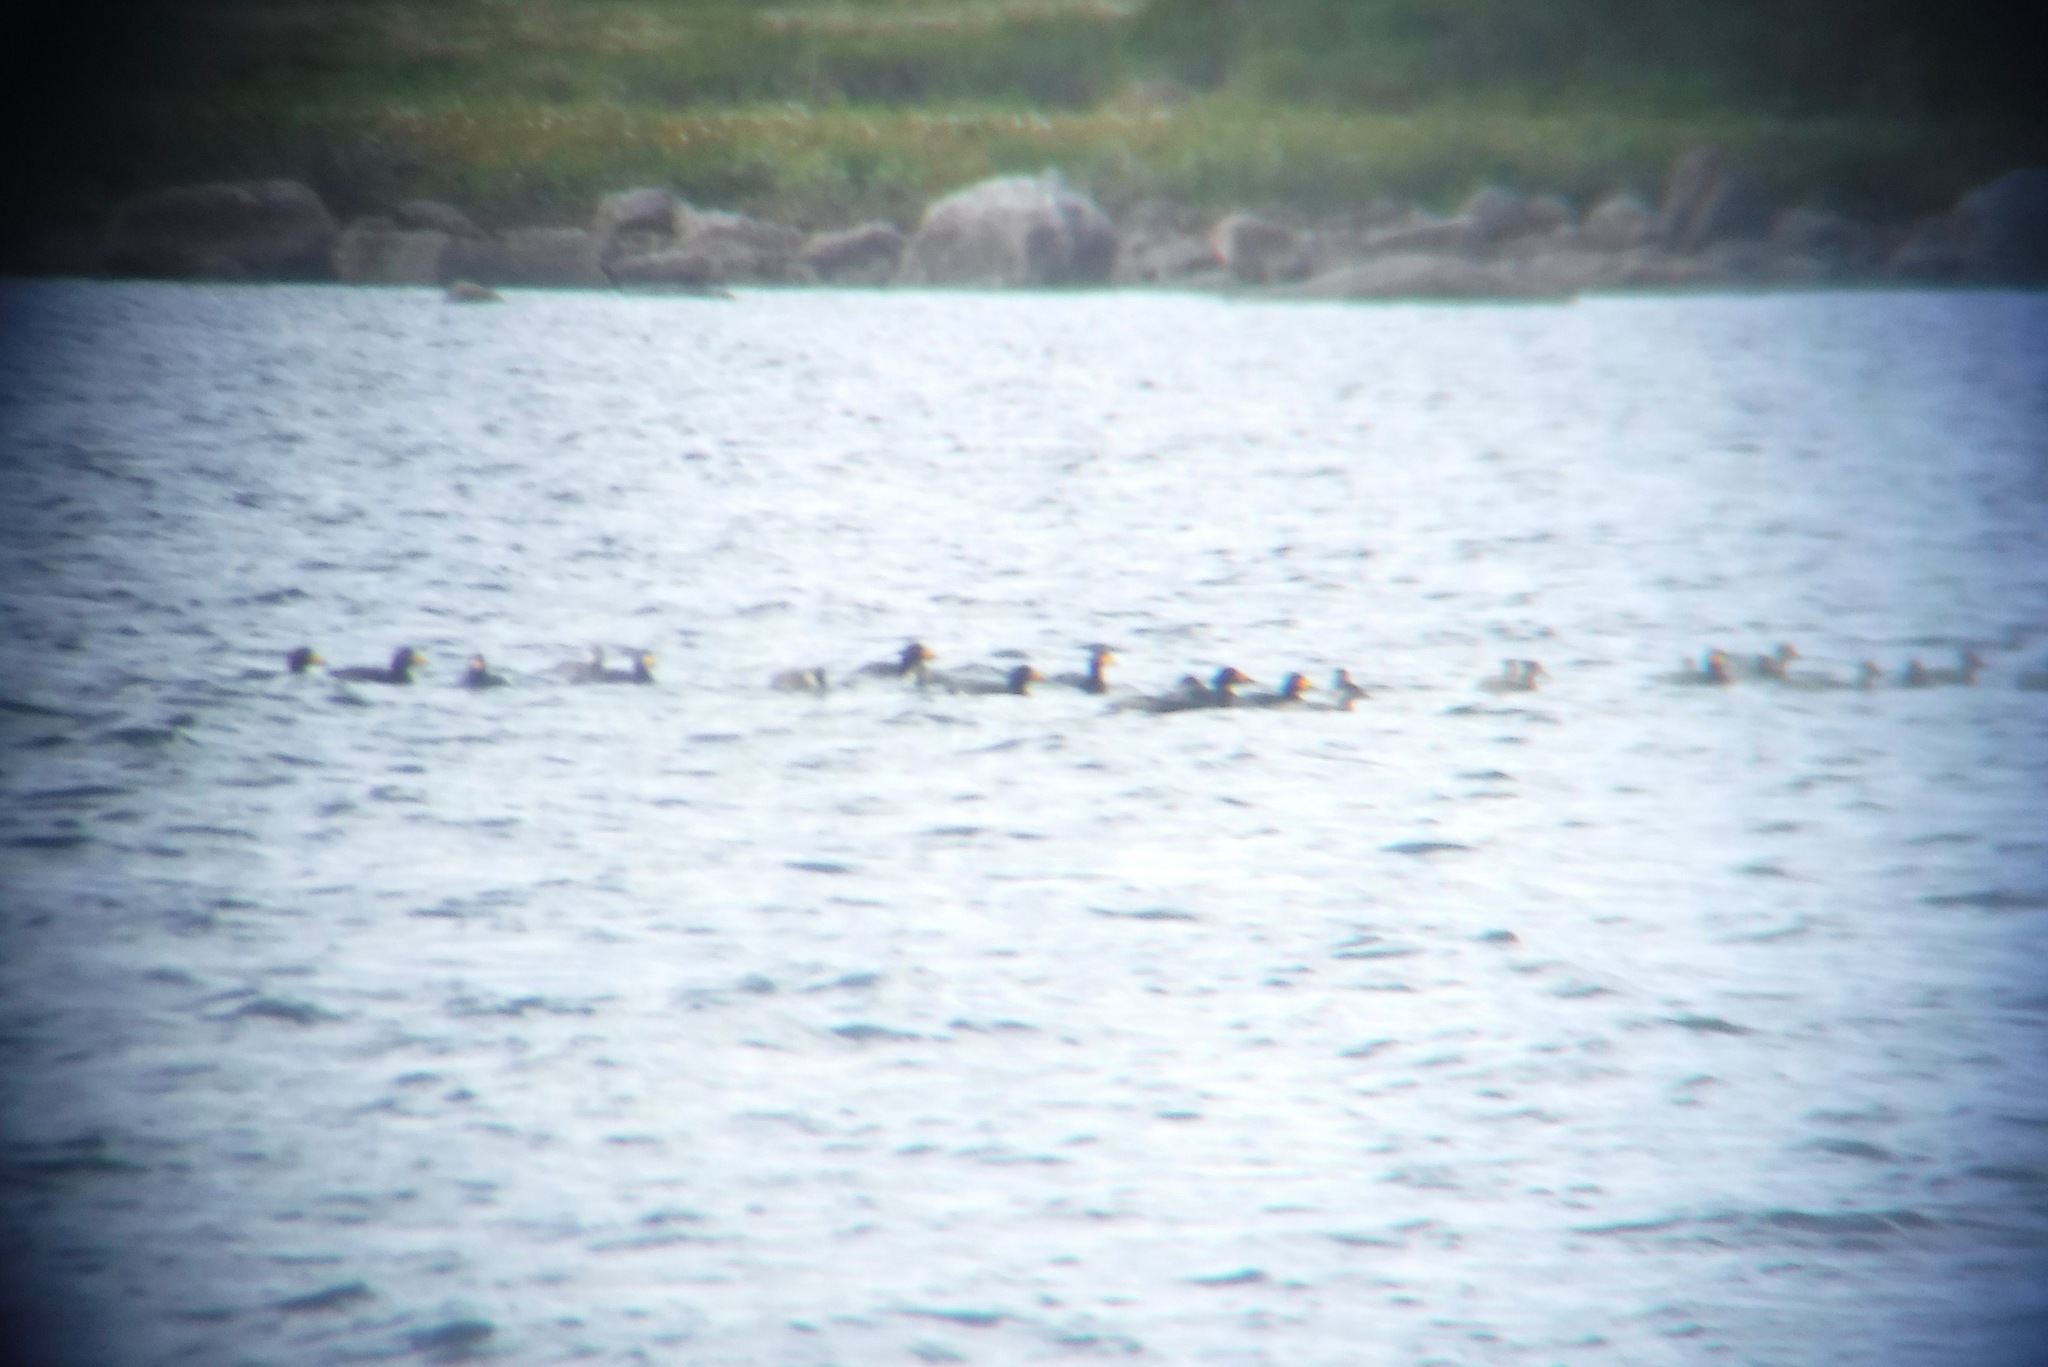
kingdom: Animalia
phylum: Chordata
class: Aves
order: Anseriformes
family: Anatidae
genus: Melanitta
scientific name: Melanitta americana
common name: Black scoter
